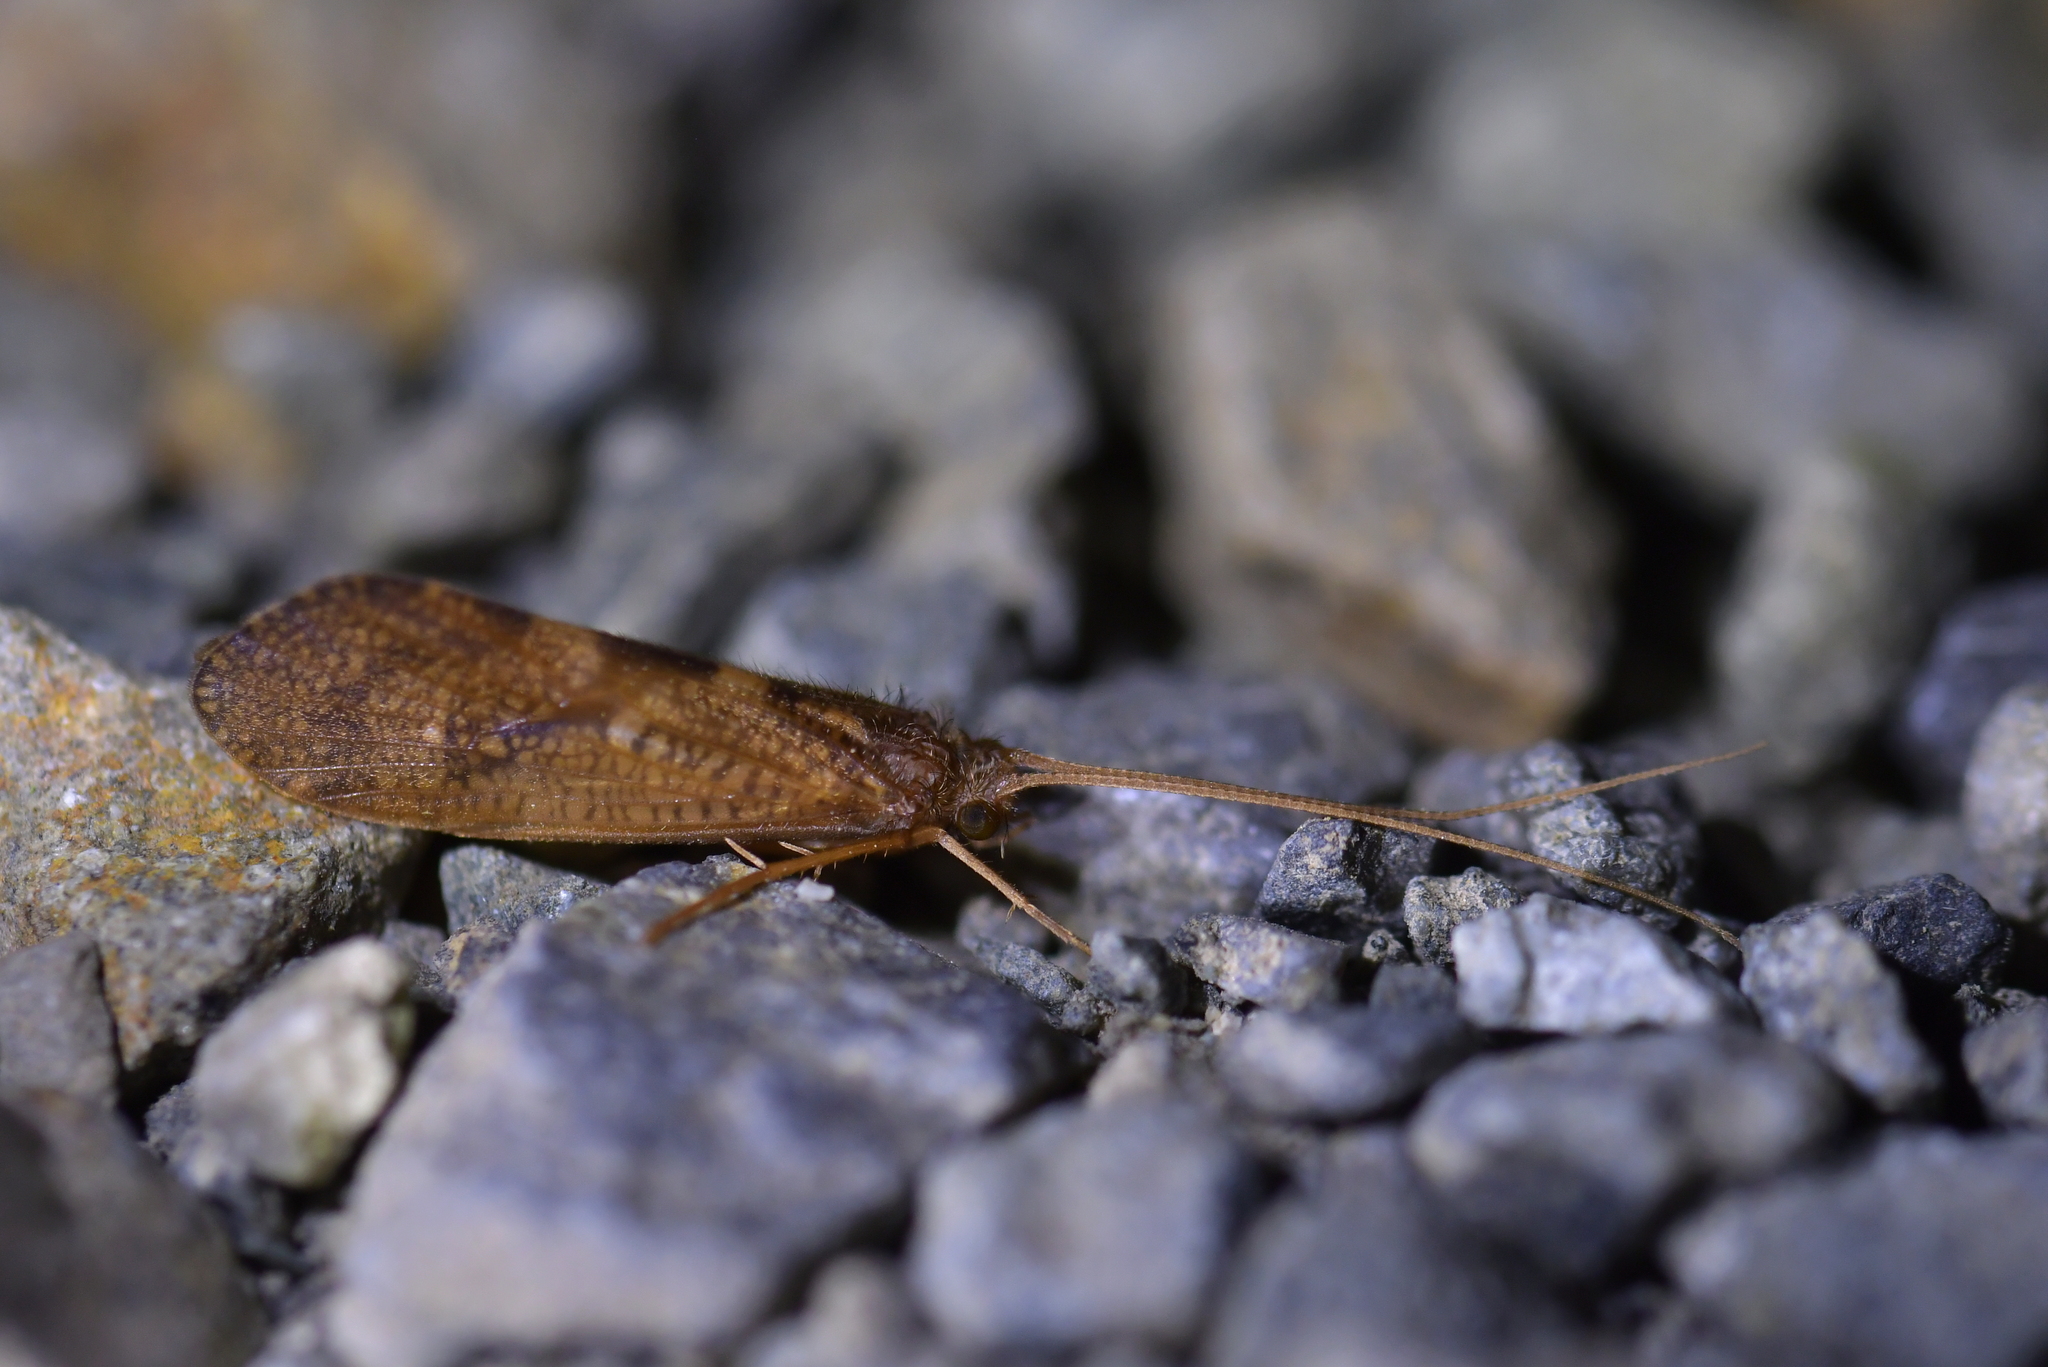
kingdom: Animalia
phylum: Arthropoda
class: Insecta
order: Trichoptera
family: Oeconesidae
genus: Oeconesus
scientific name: Oeconesus maori
